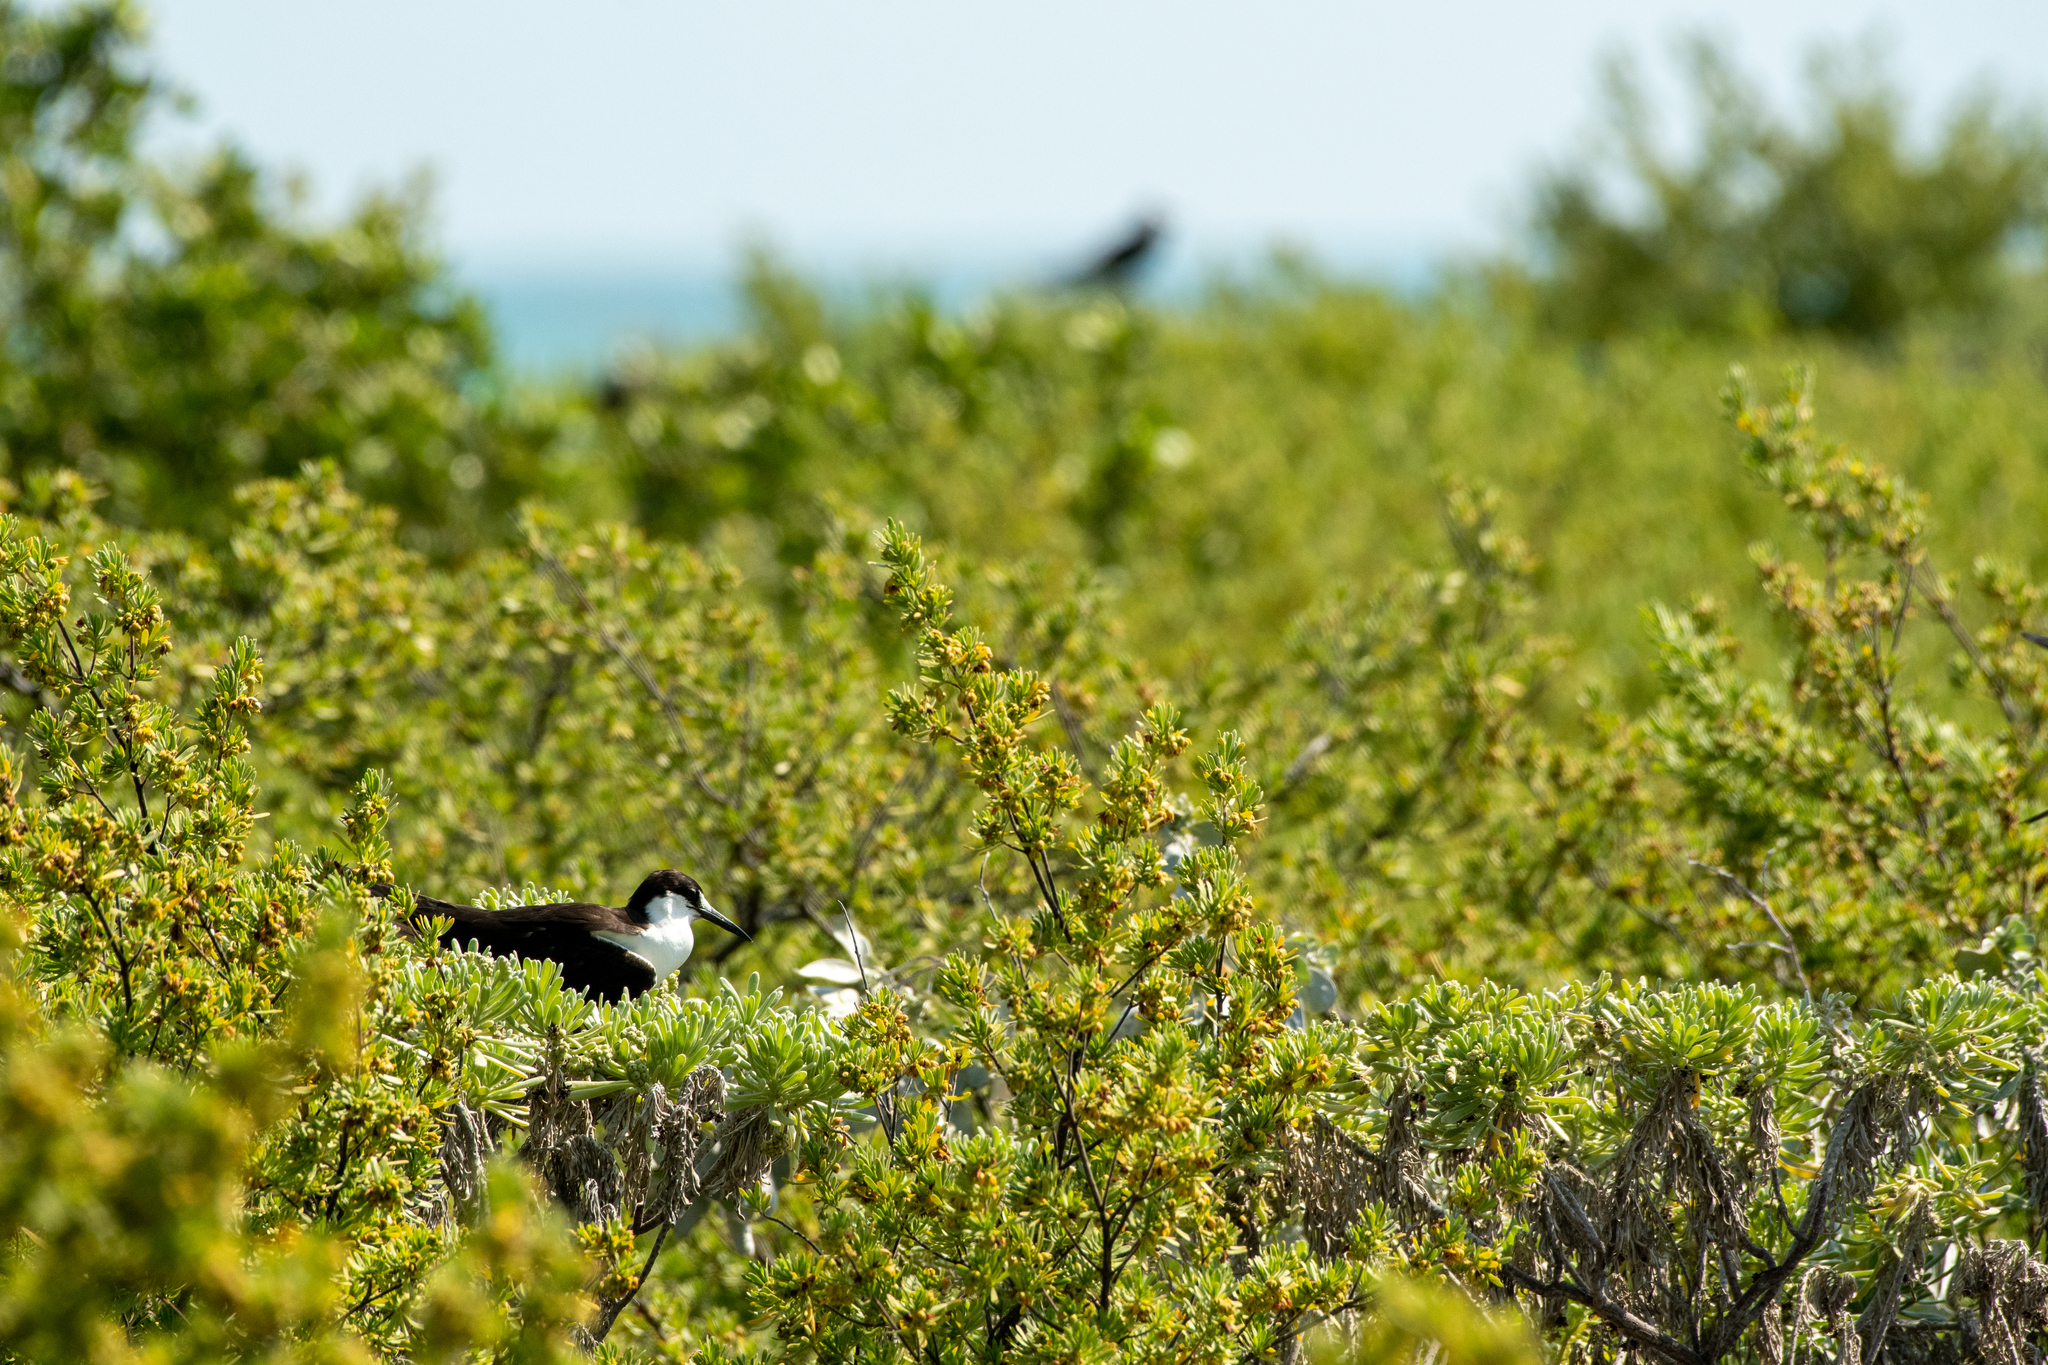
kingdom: Animalia
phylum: Chordata
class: Aves
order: Charadriiformes
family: Laridae
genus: Onychoprion
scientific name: Onychoprion fuscatus
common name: Sooty tern
